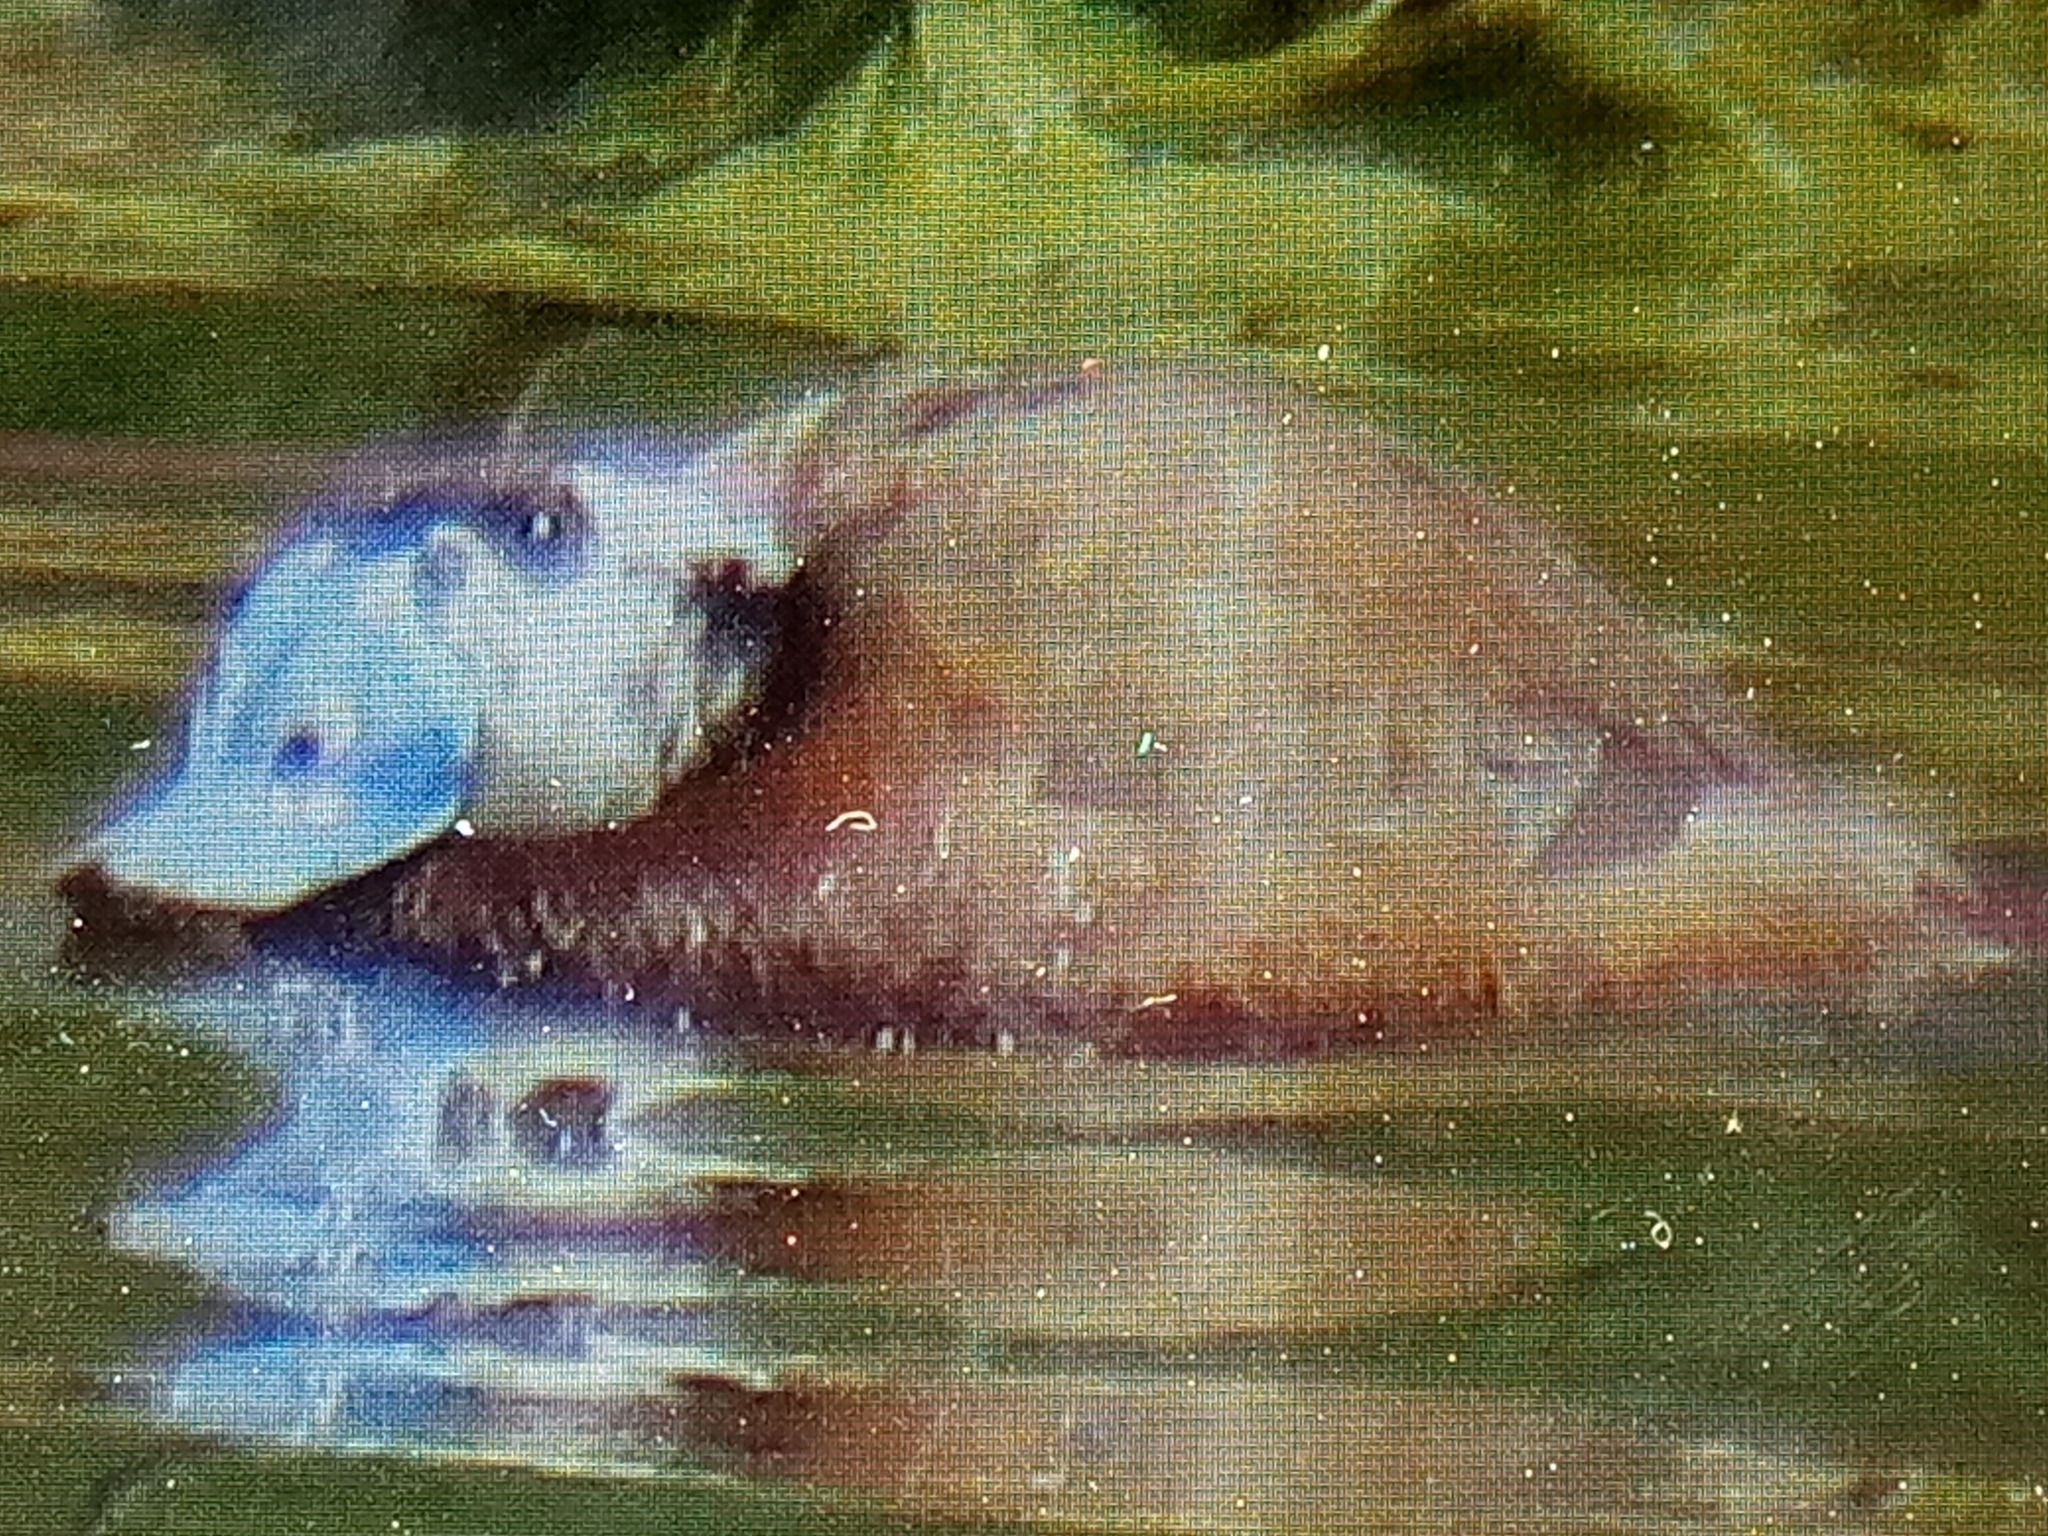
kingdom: Animalia
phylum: Chordata
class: Aves
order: Anseriformes
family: Anatidae
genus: Oxyura
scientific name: Oxyura leucocephala
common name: White-headed duck
